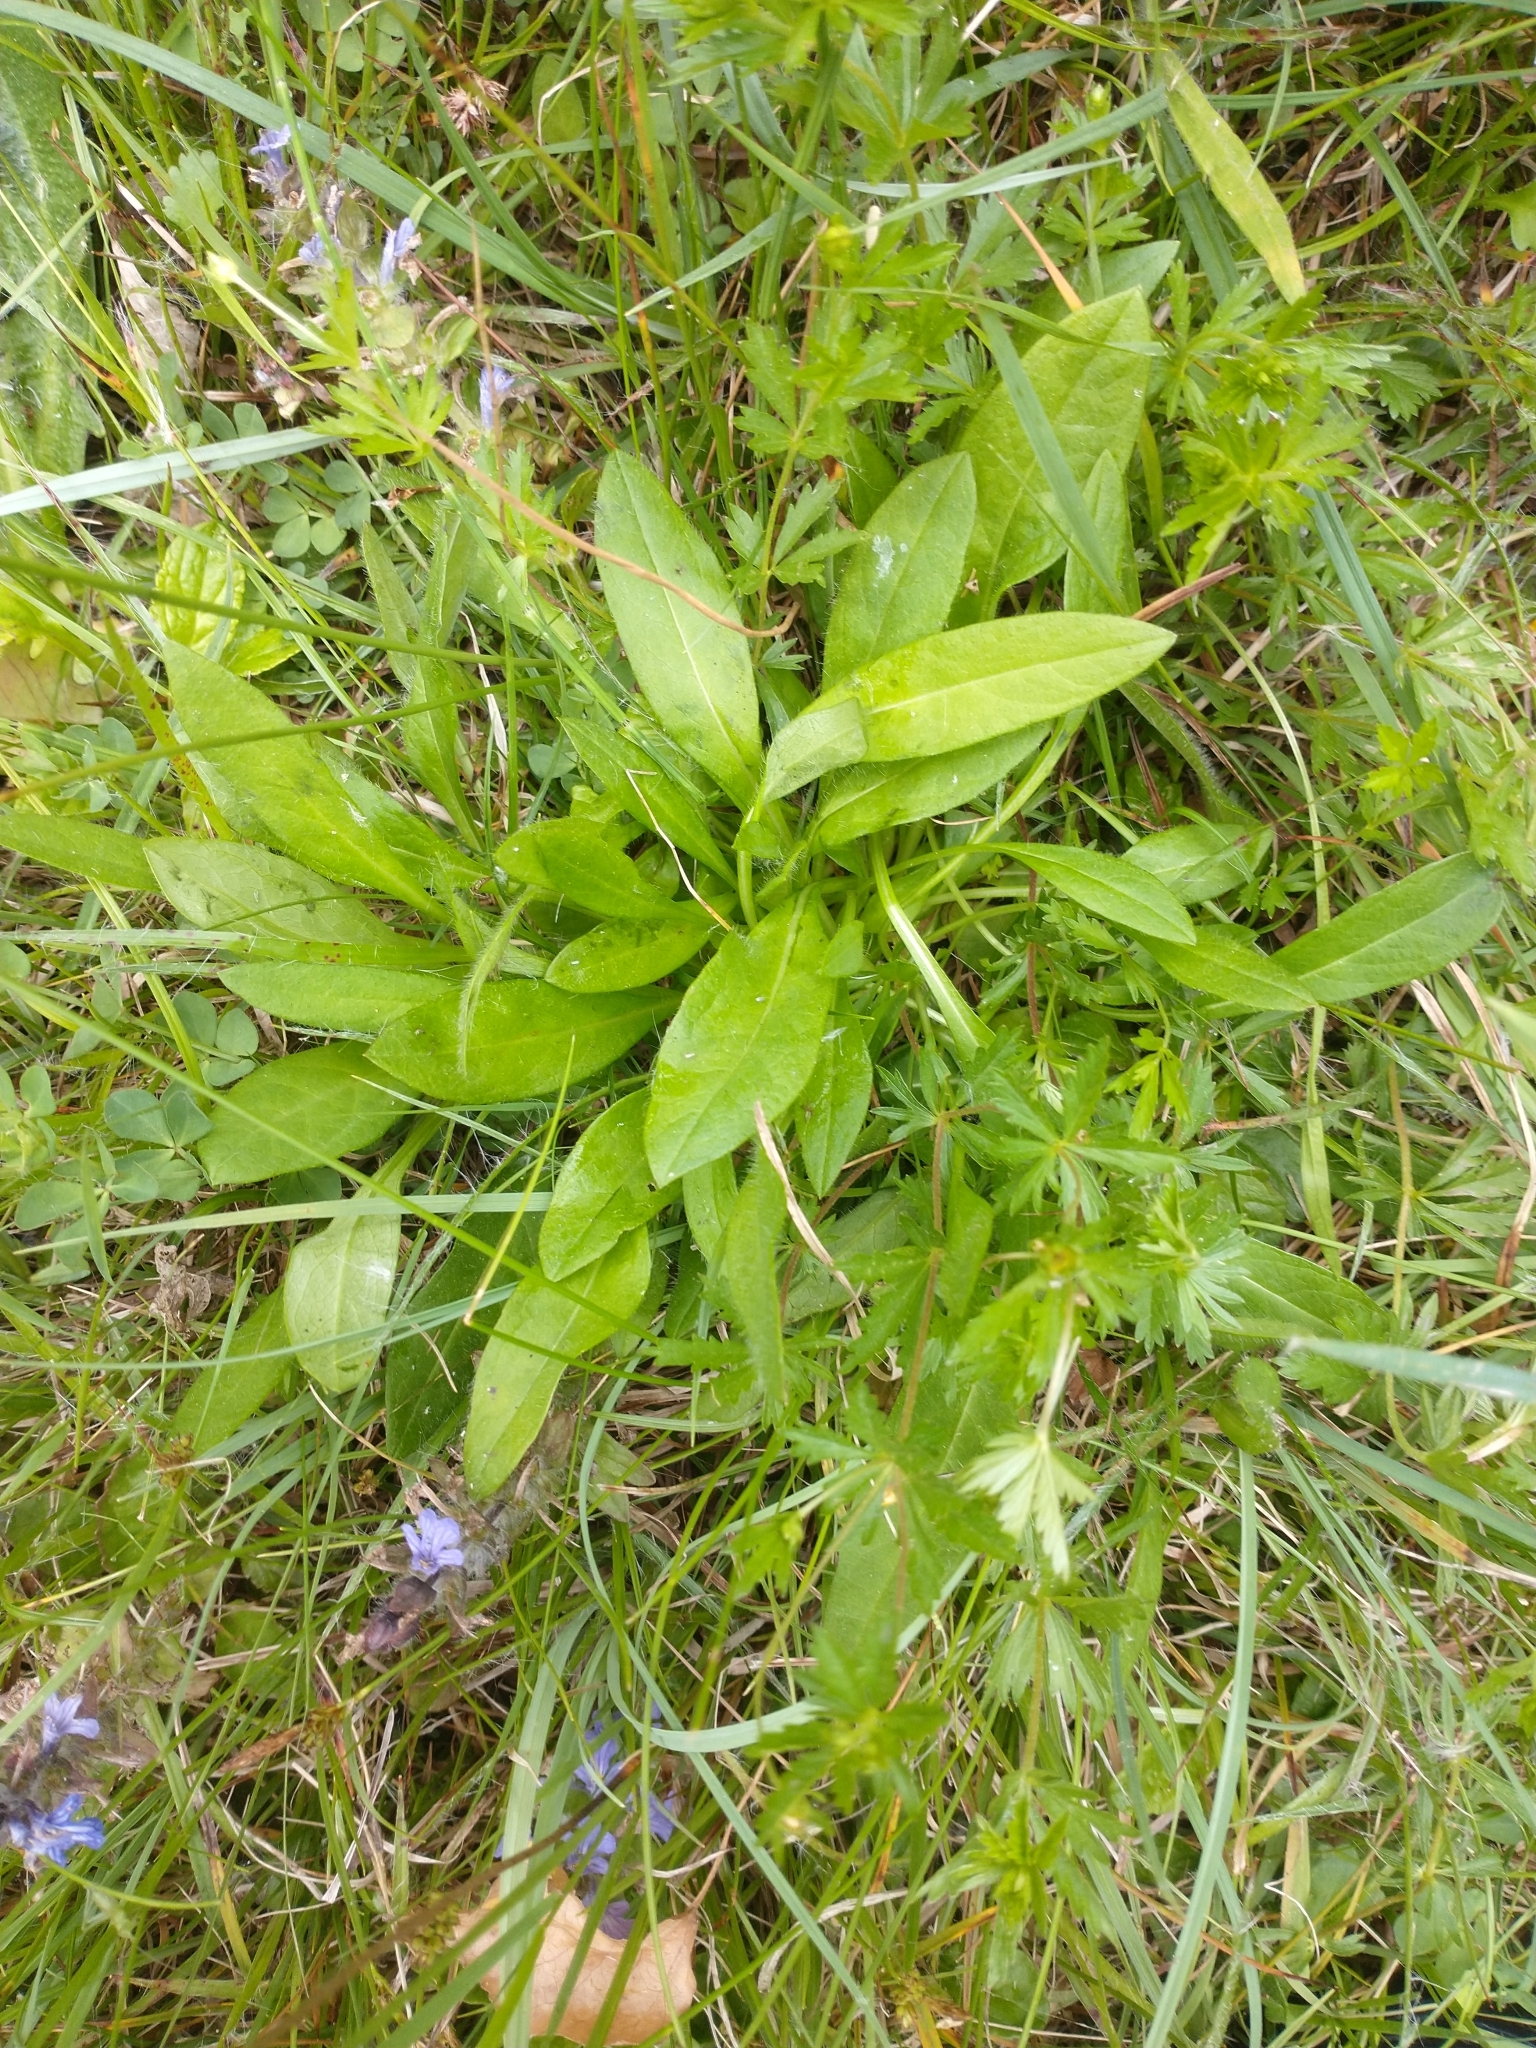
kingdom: Plantae
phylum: Tracheophyta
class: Magnoliopsida
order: Dipsacales
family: Caprifoliaceae
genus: Succisa
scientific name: Succisa pratensis
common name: Devil's-bit
